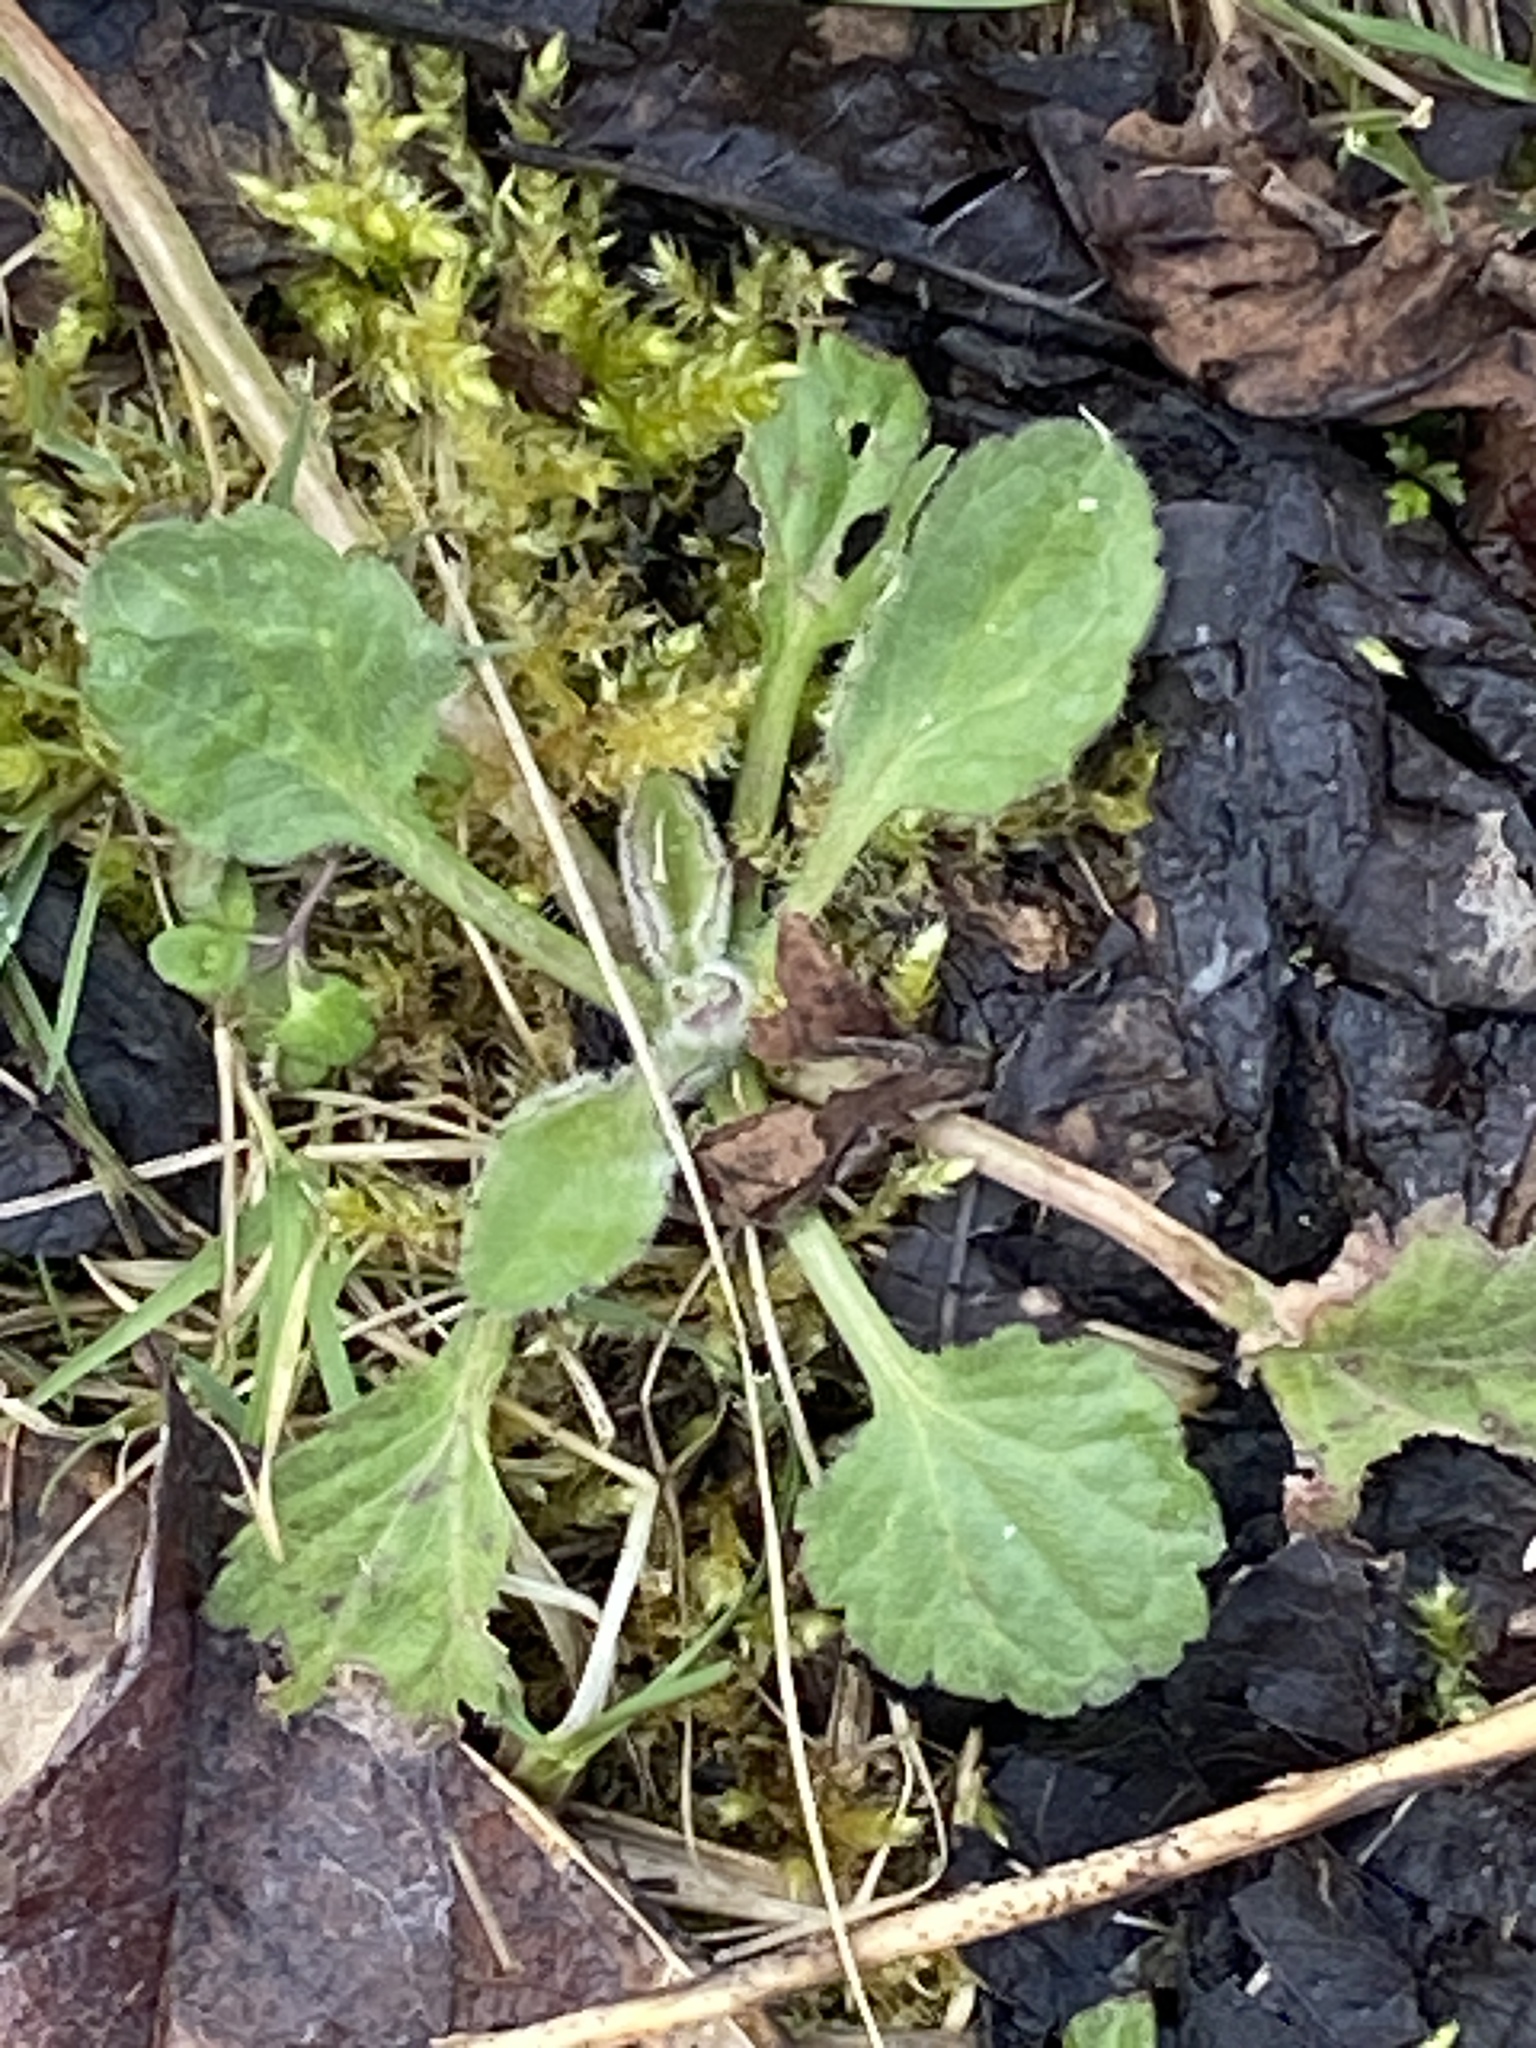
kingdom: Plantae
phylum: Tracheophyta
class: Magnoliopsida
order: Asterales
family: Asteraceae
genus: Erigeron
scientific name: Erigeron annuus
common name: Tall fleabane
